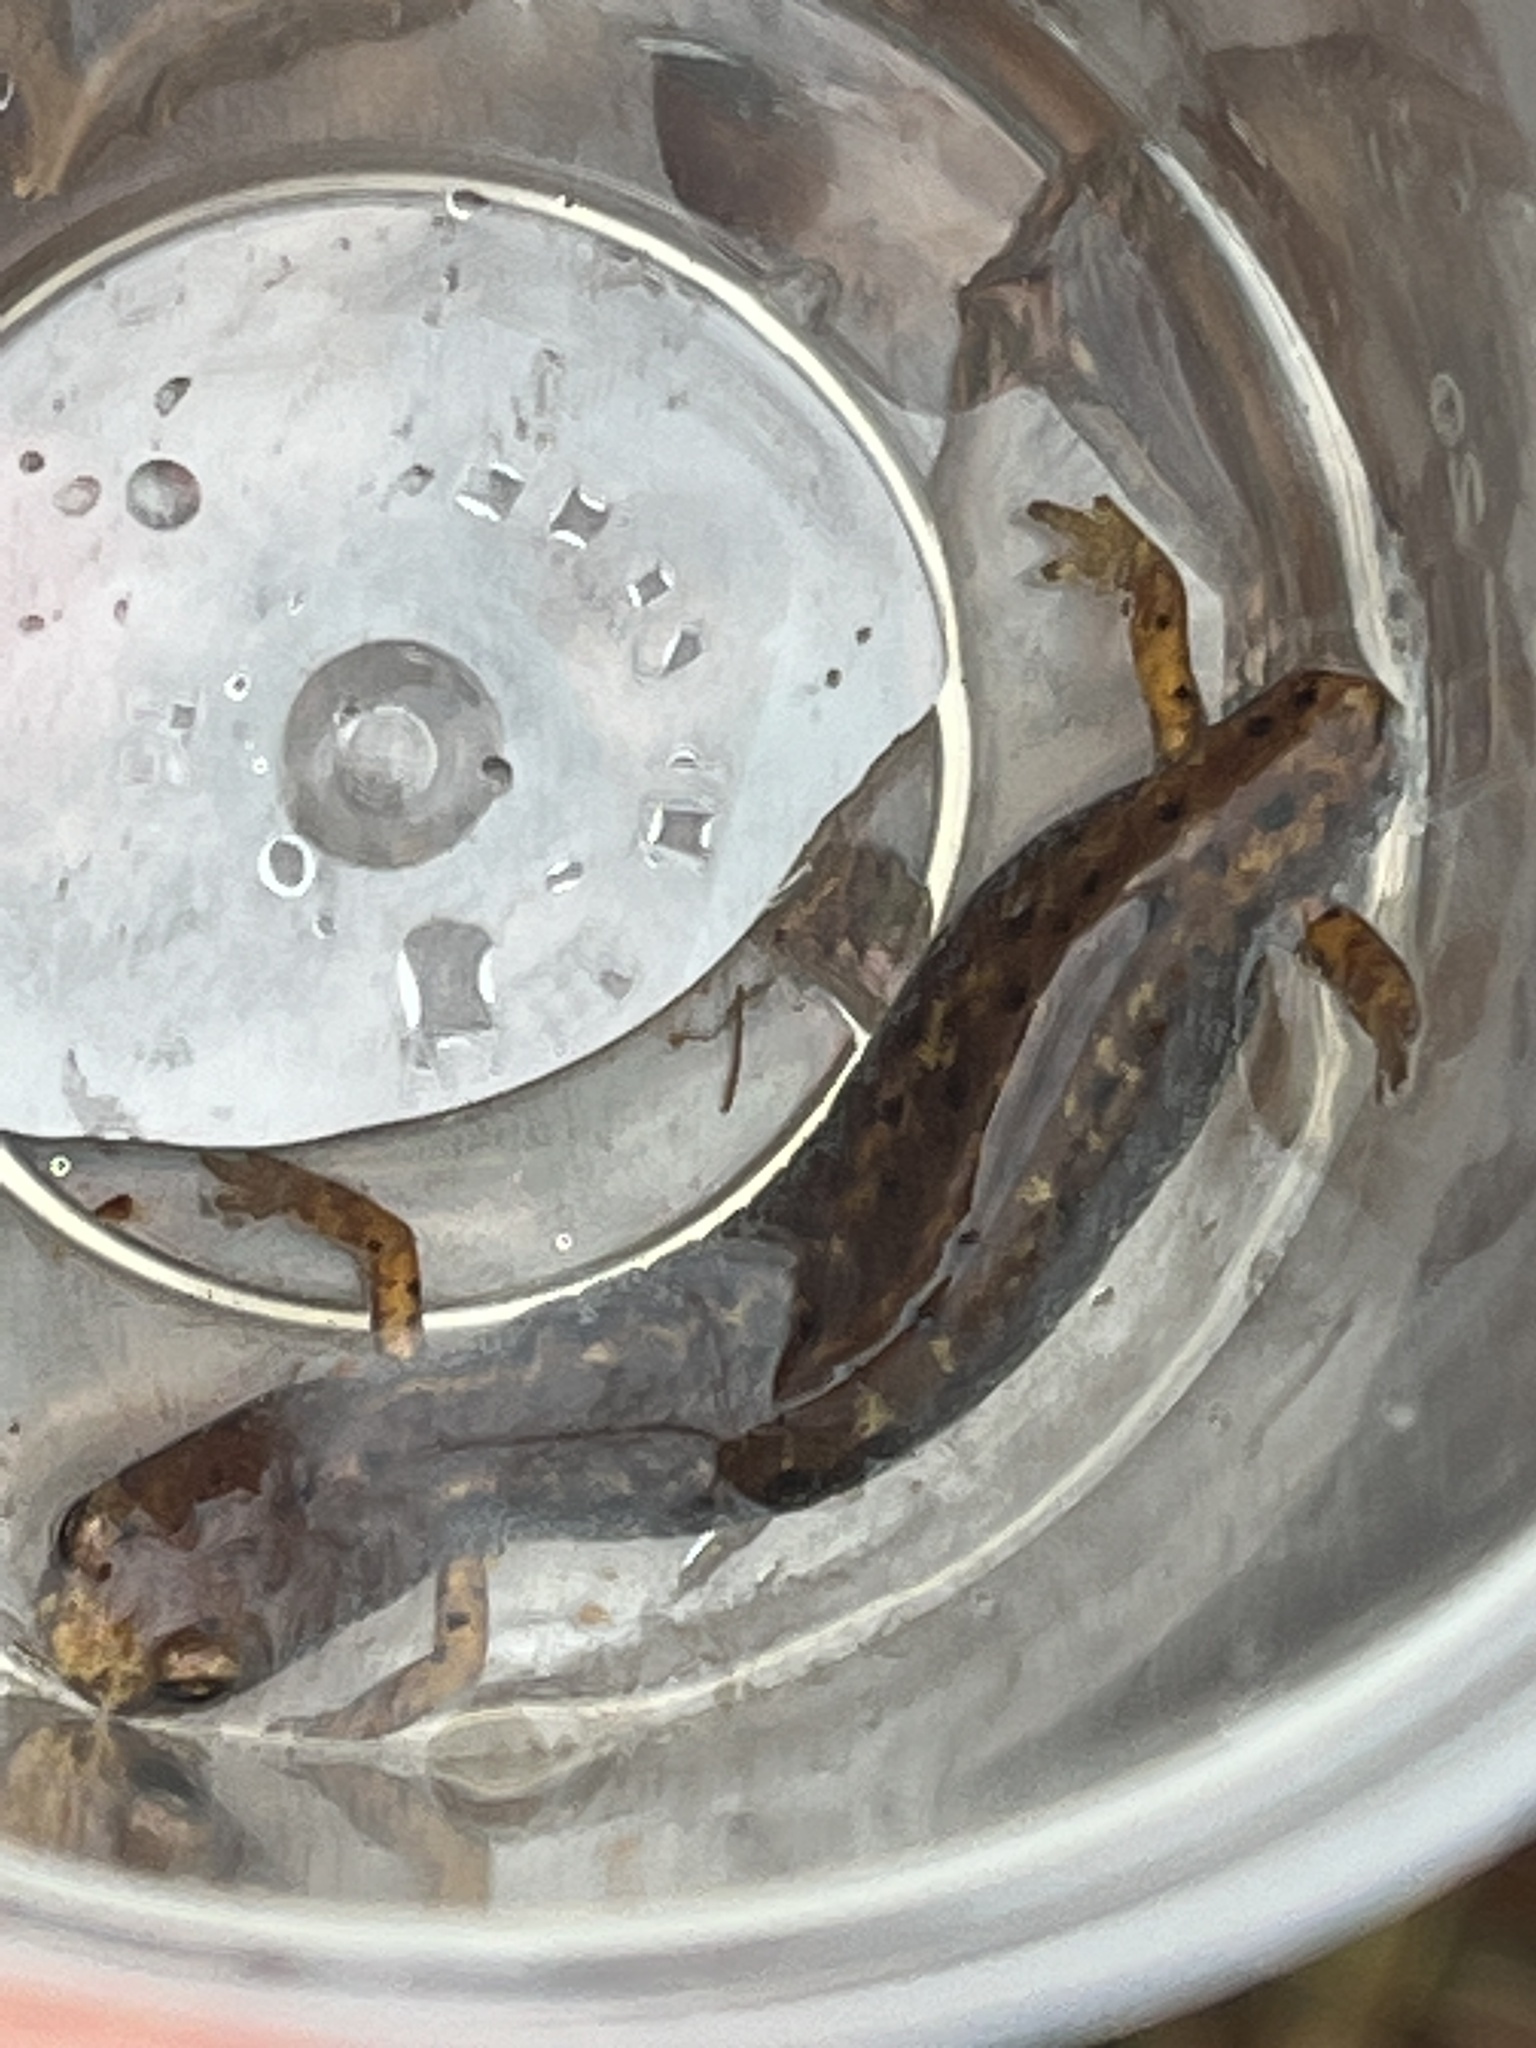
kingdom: Animalia
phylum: Chordata
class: Amphibia
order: Caudata
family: Plethodontidae
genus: Hemidactylium
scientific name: Hemidactylium scutatum
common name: Four-toed salamander
